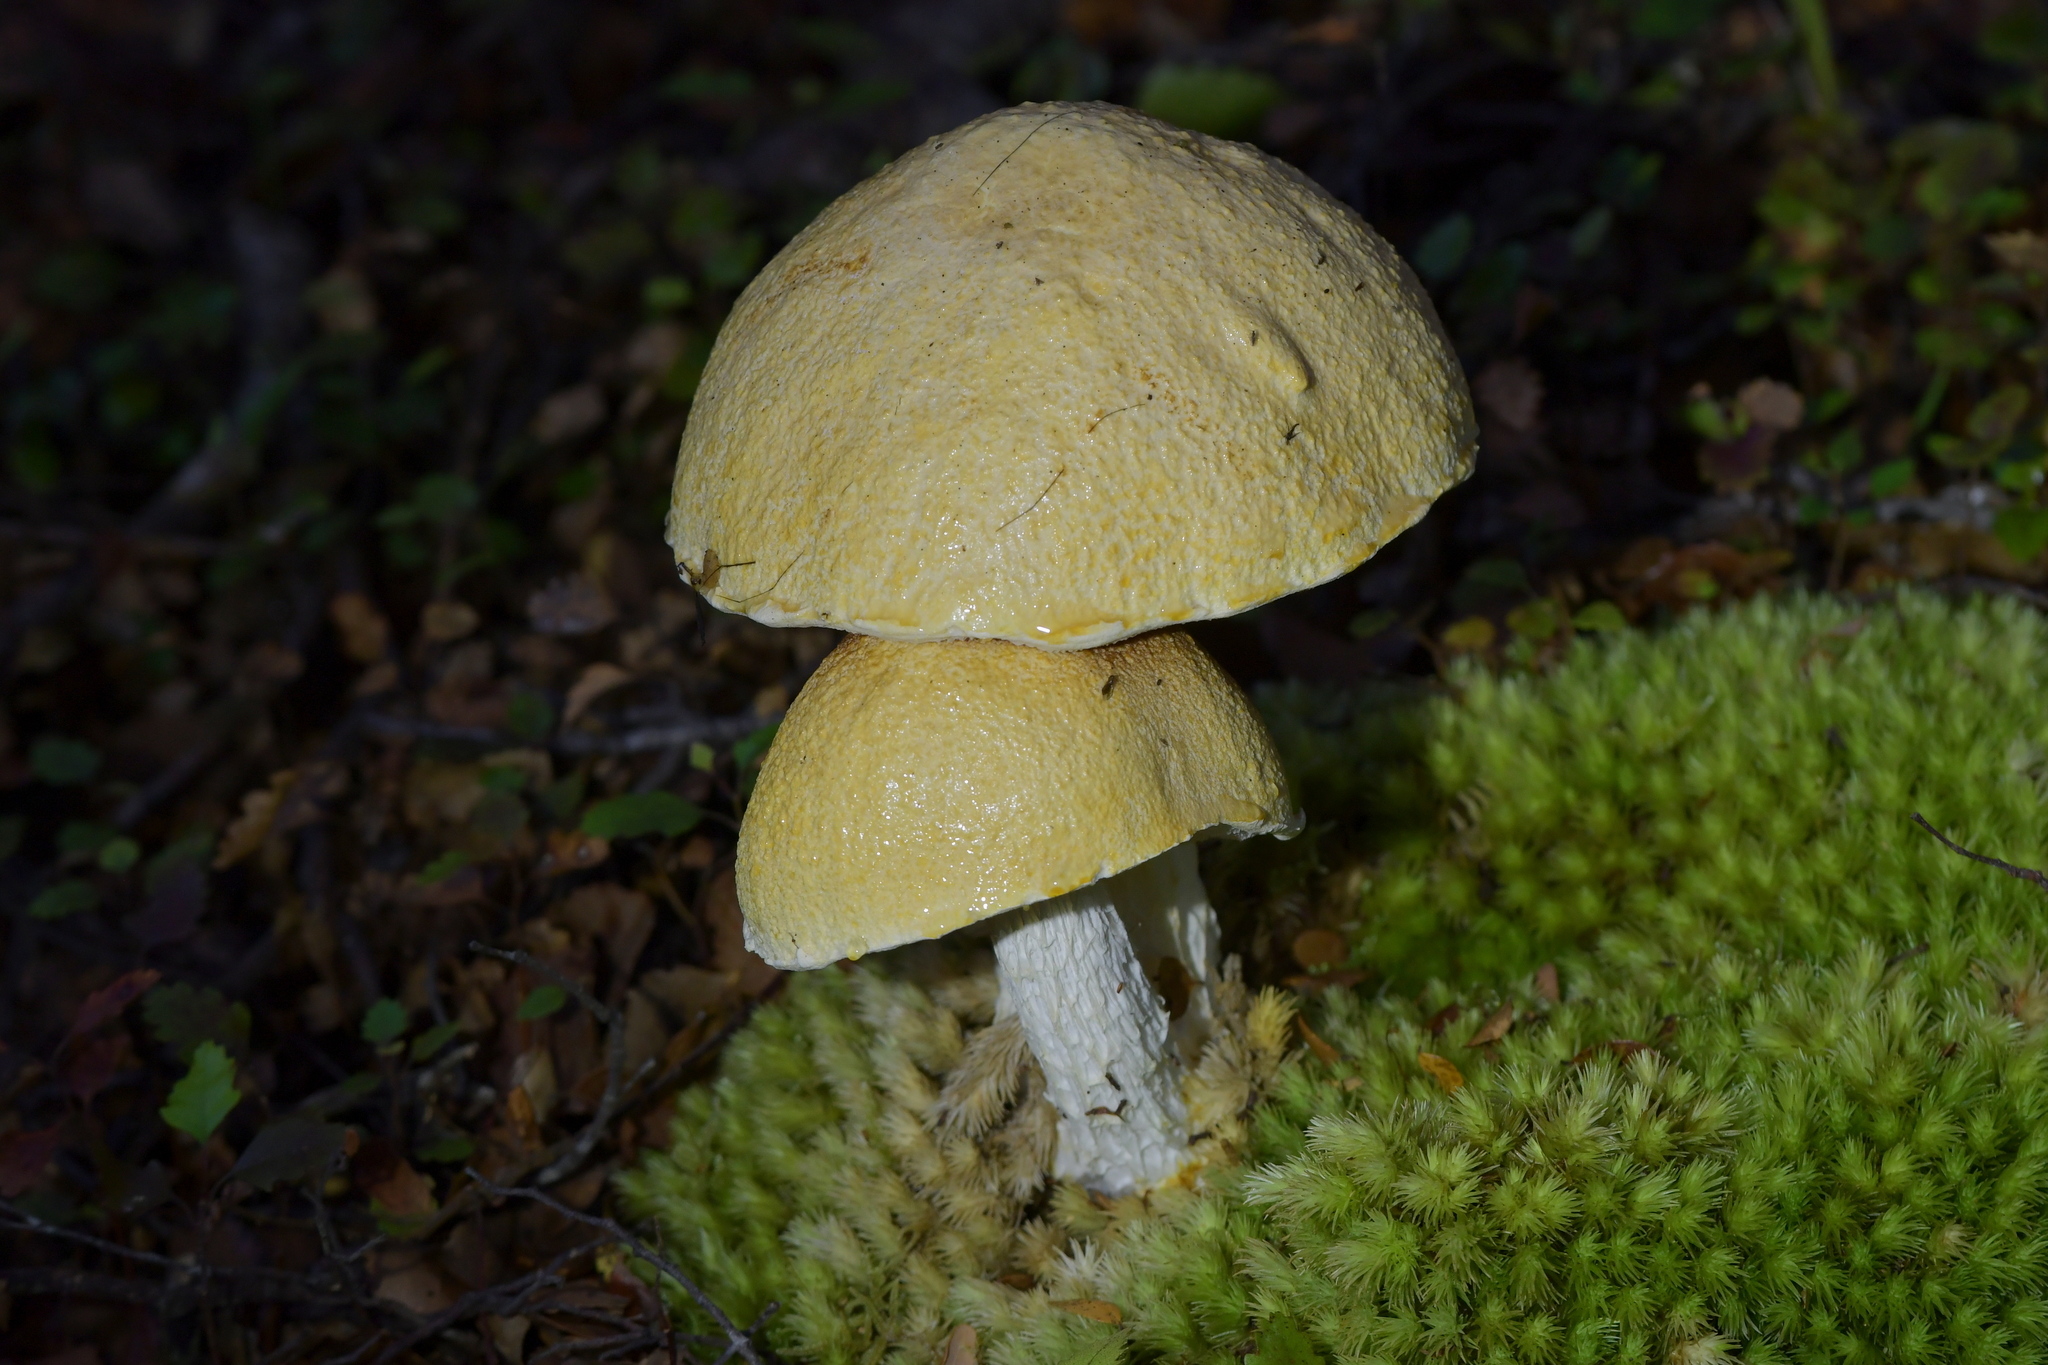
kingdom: Fungi
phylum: Basidiomycota
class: Agaricomycetes
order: Boletales
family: Boletaceae
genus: Fistulinella
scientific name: Fistulinella nivea
